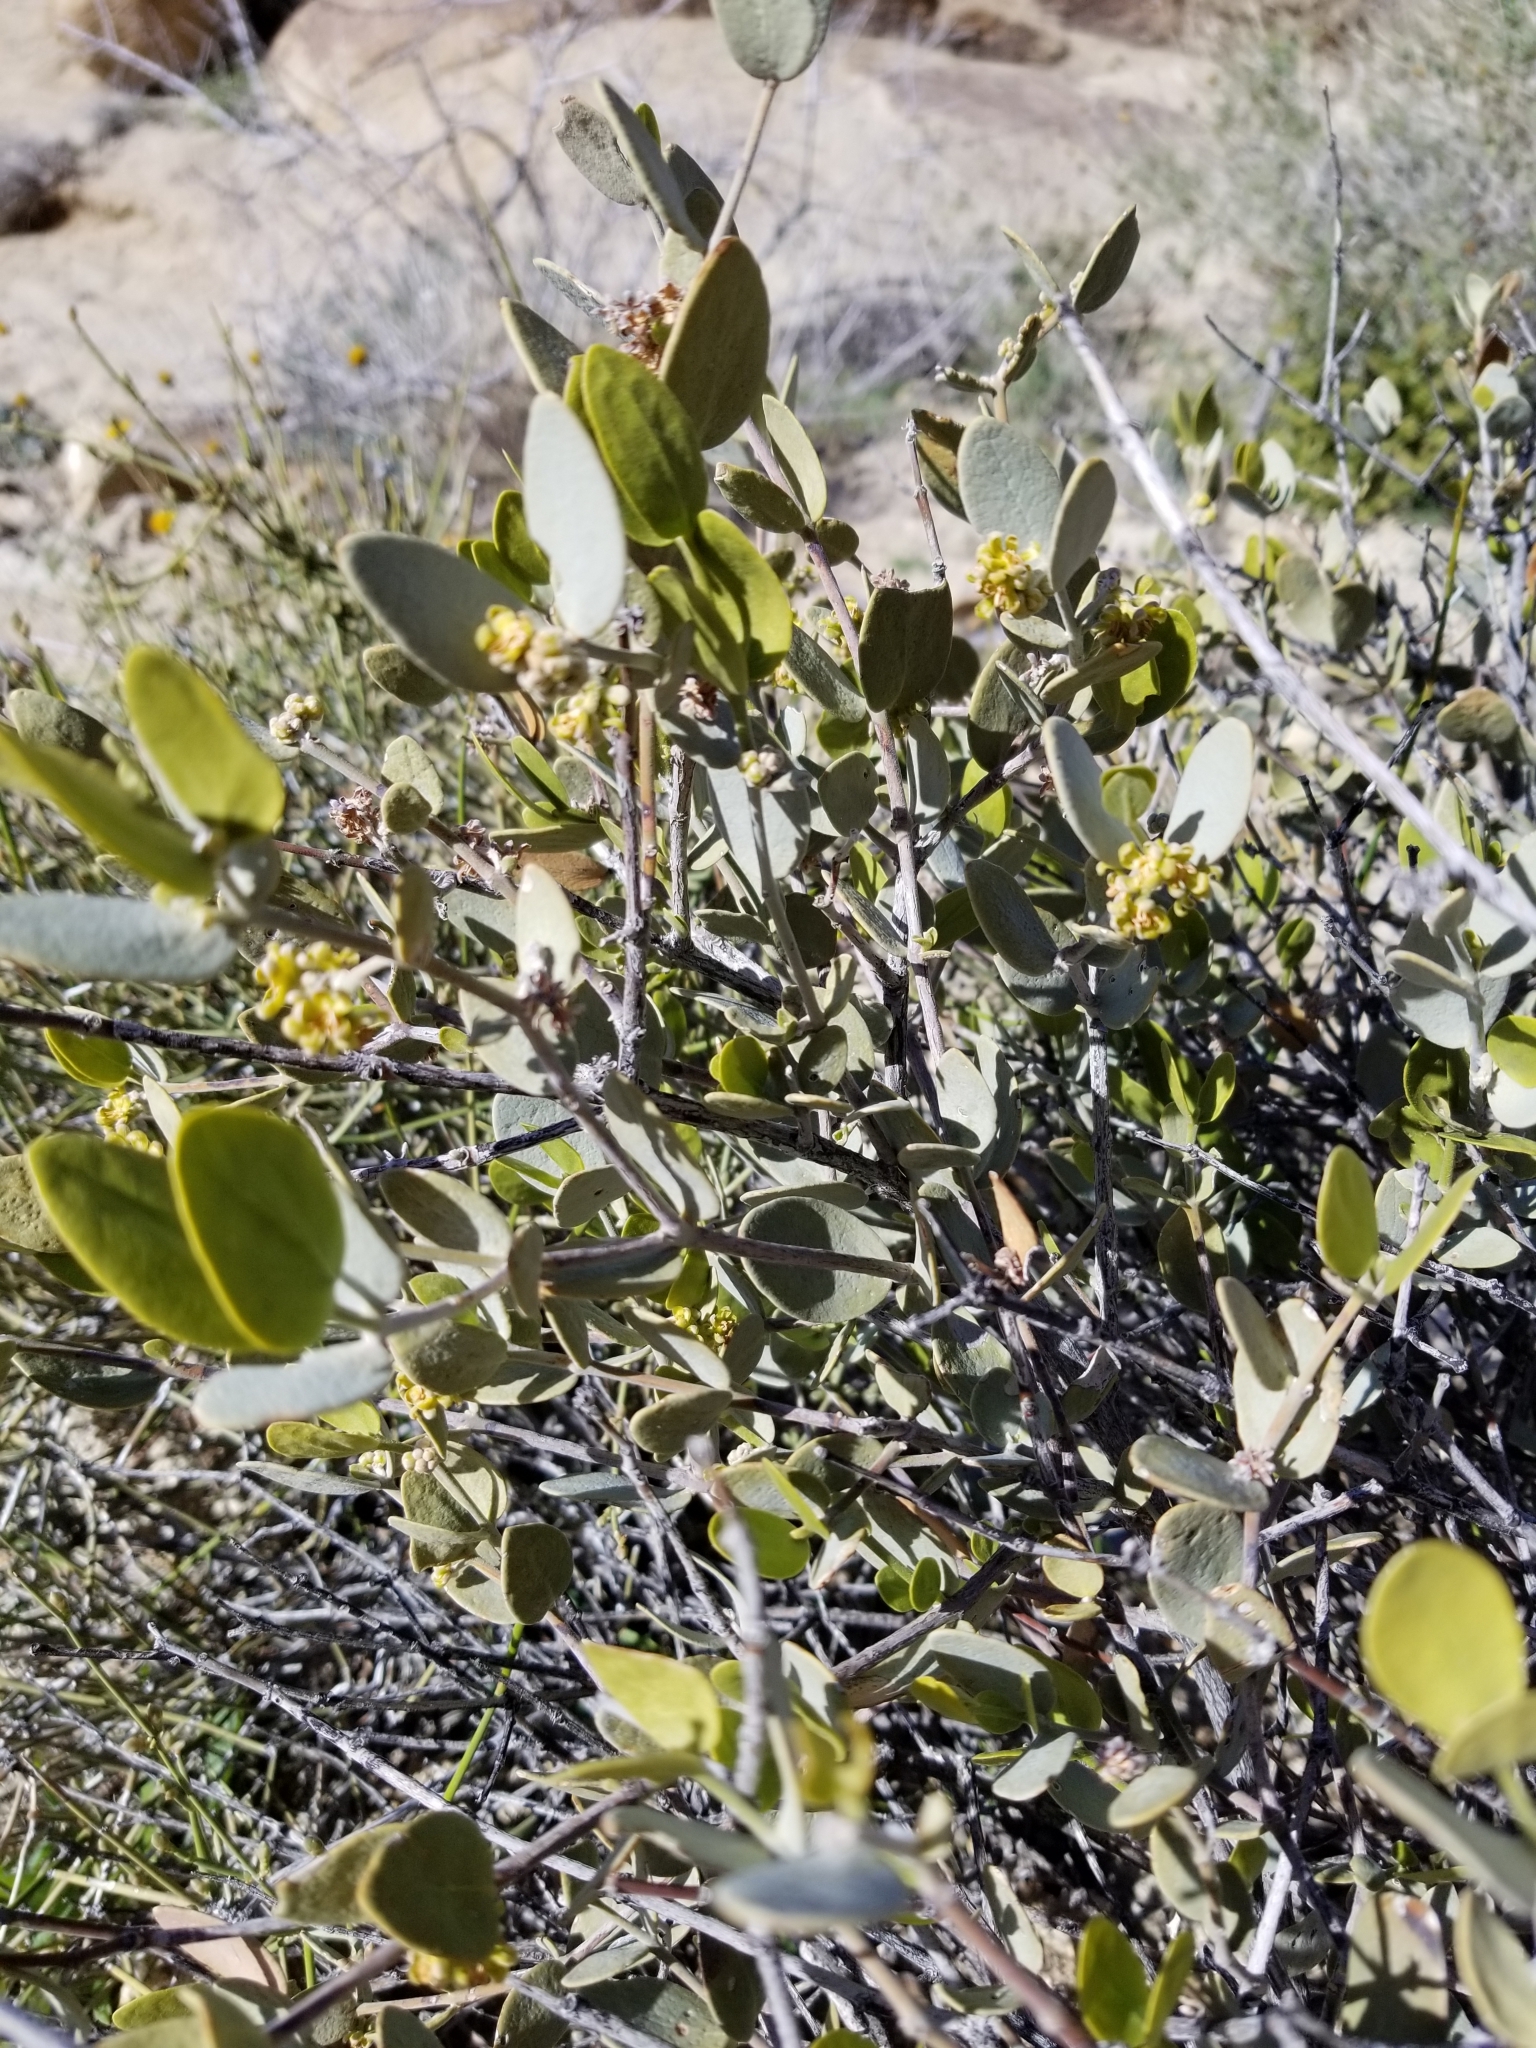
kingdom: Plantae
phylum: Tracheophyta
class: Magnoliopsida
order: Caryophyllales
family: Simmondsiaceae
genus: Simmondsia
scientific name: Simmondsia chinensis
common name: Jojoba
